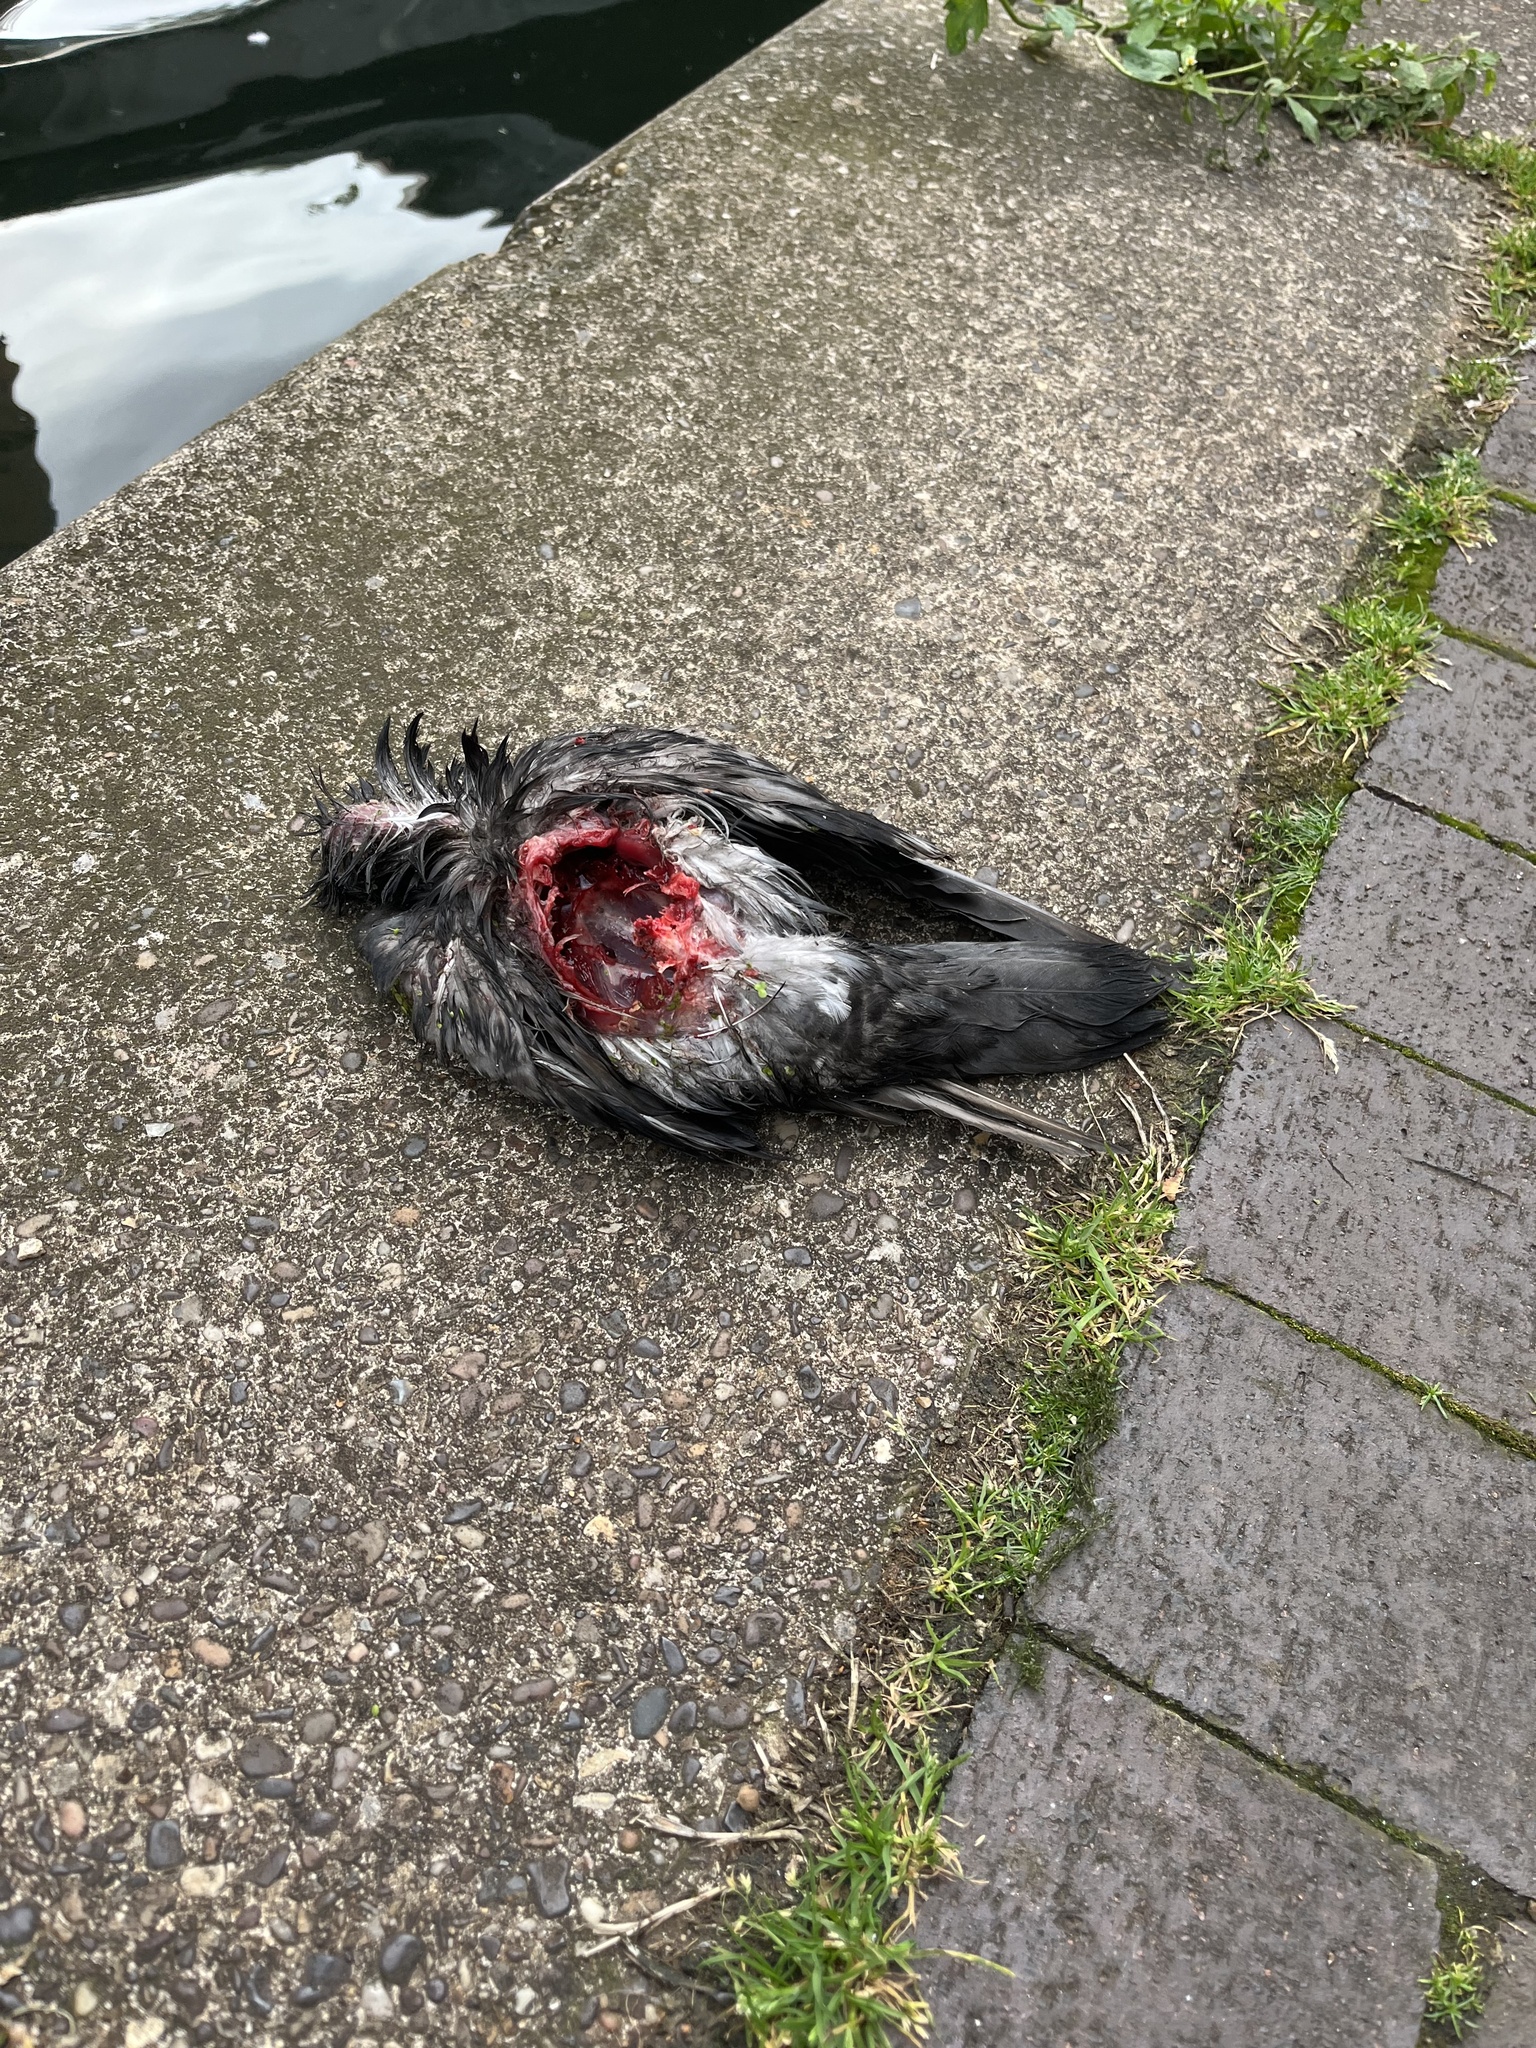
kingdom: Animalia
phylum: Chordata
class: Aves
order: Columbiformes
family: Columbidae
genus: Columba
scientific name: Columba livia
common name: Rock pigeon
